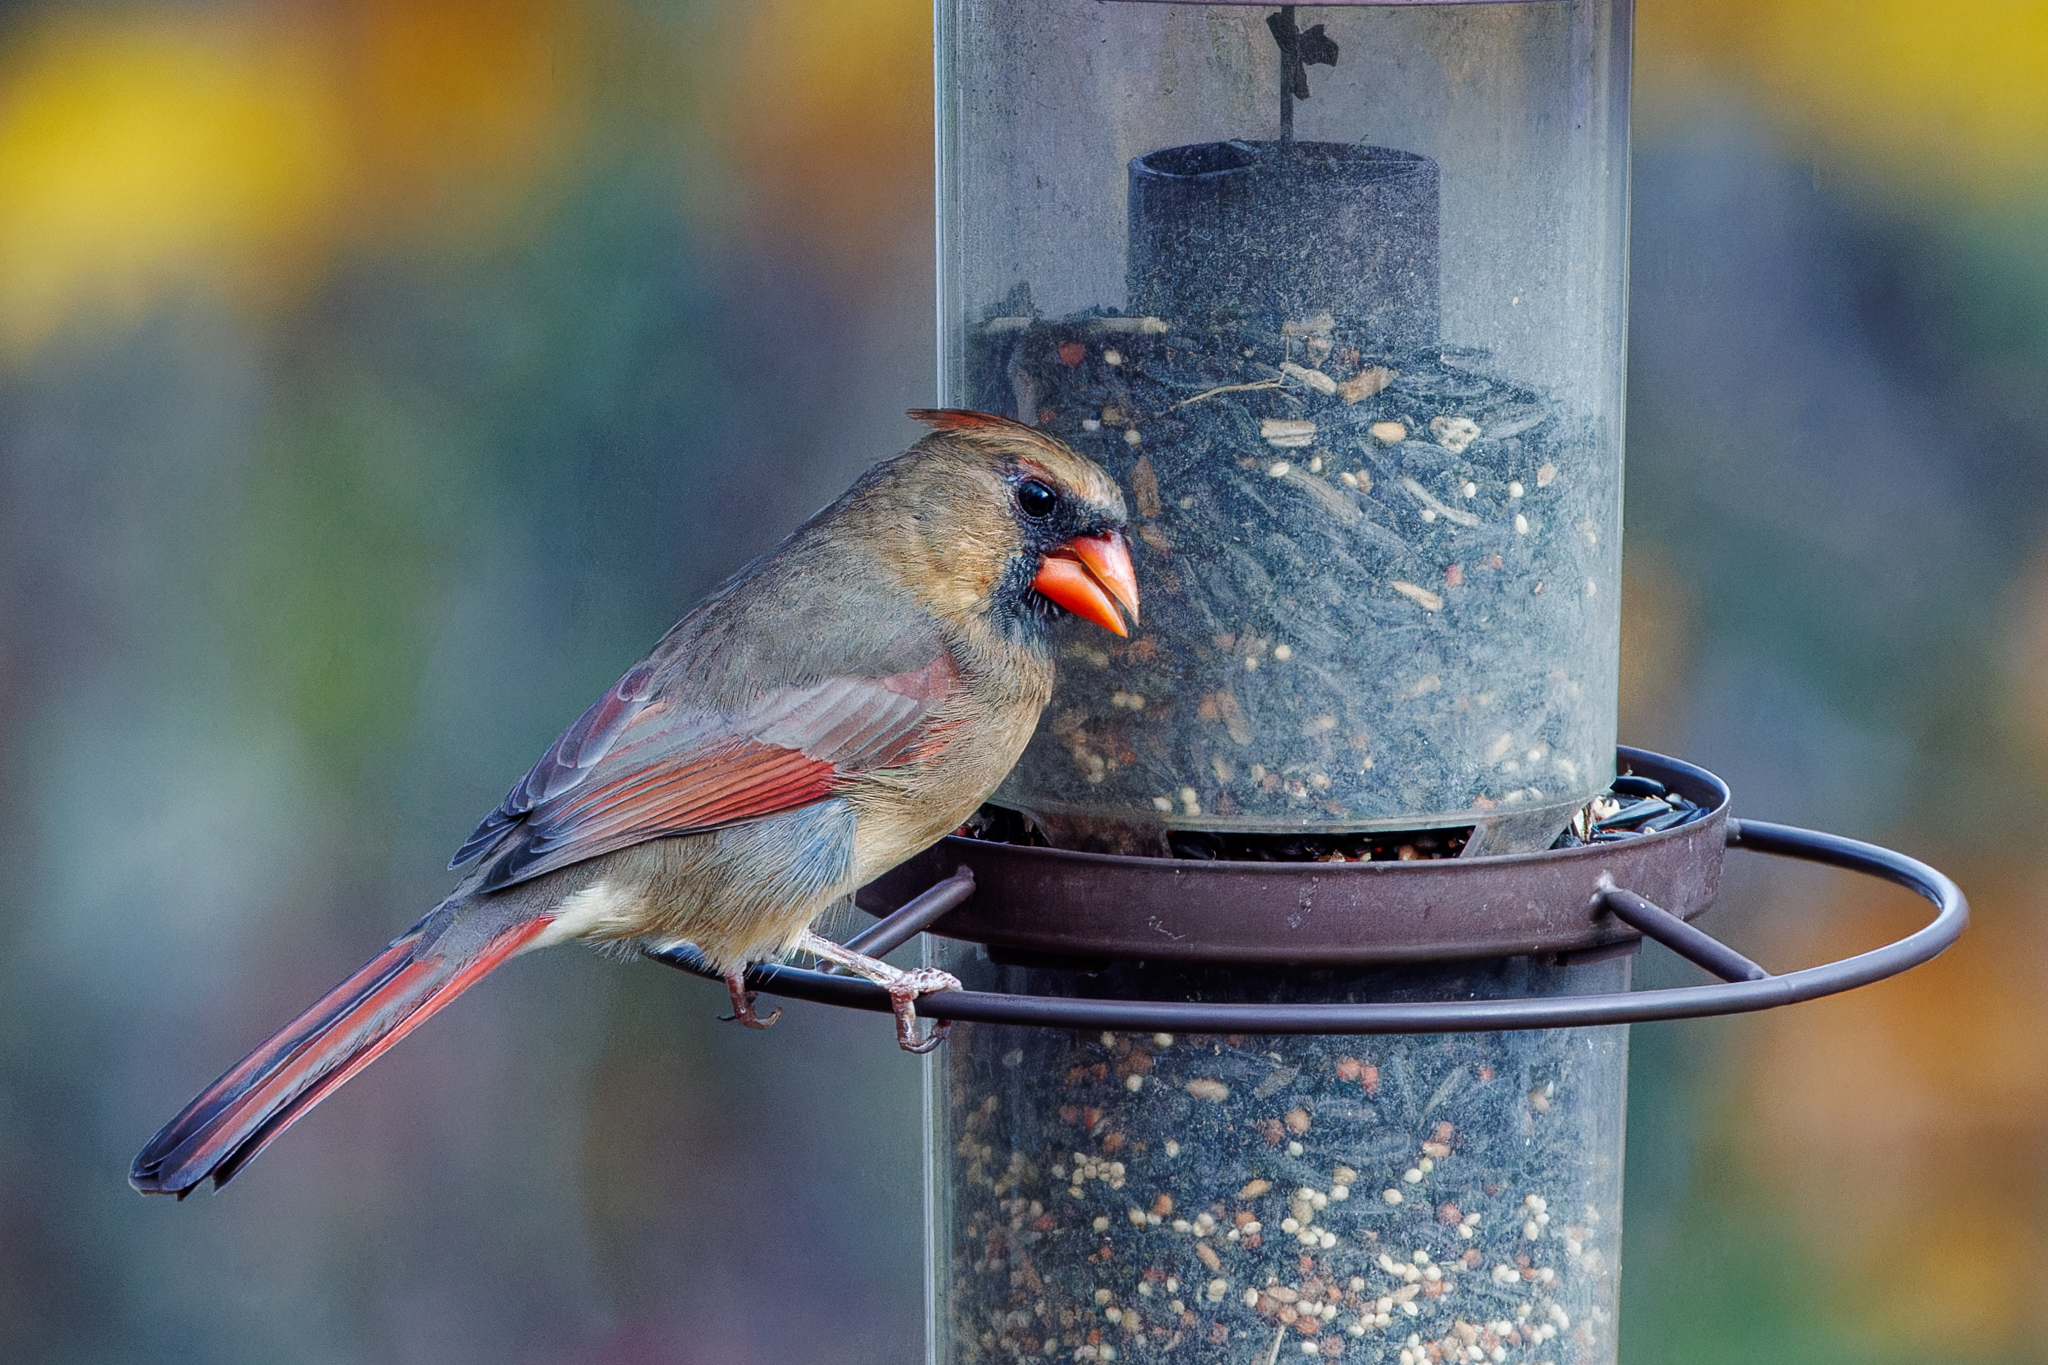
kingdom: Animalia
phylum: Chordata
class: Aves
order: Passeriformes
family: Cardinalidae
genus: Cardinalis
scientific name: Cardinalis cardinalis
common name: Northern cardinal
